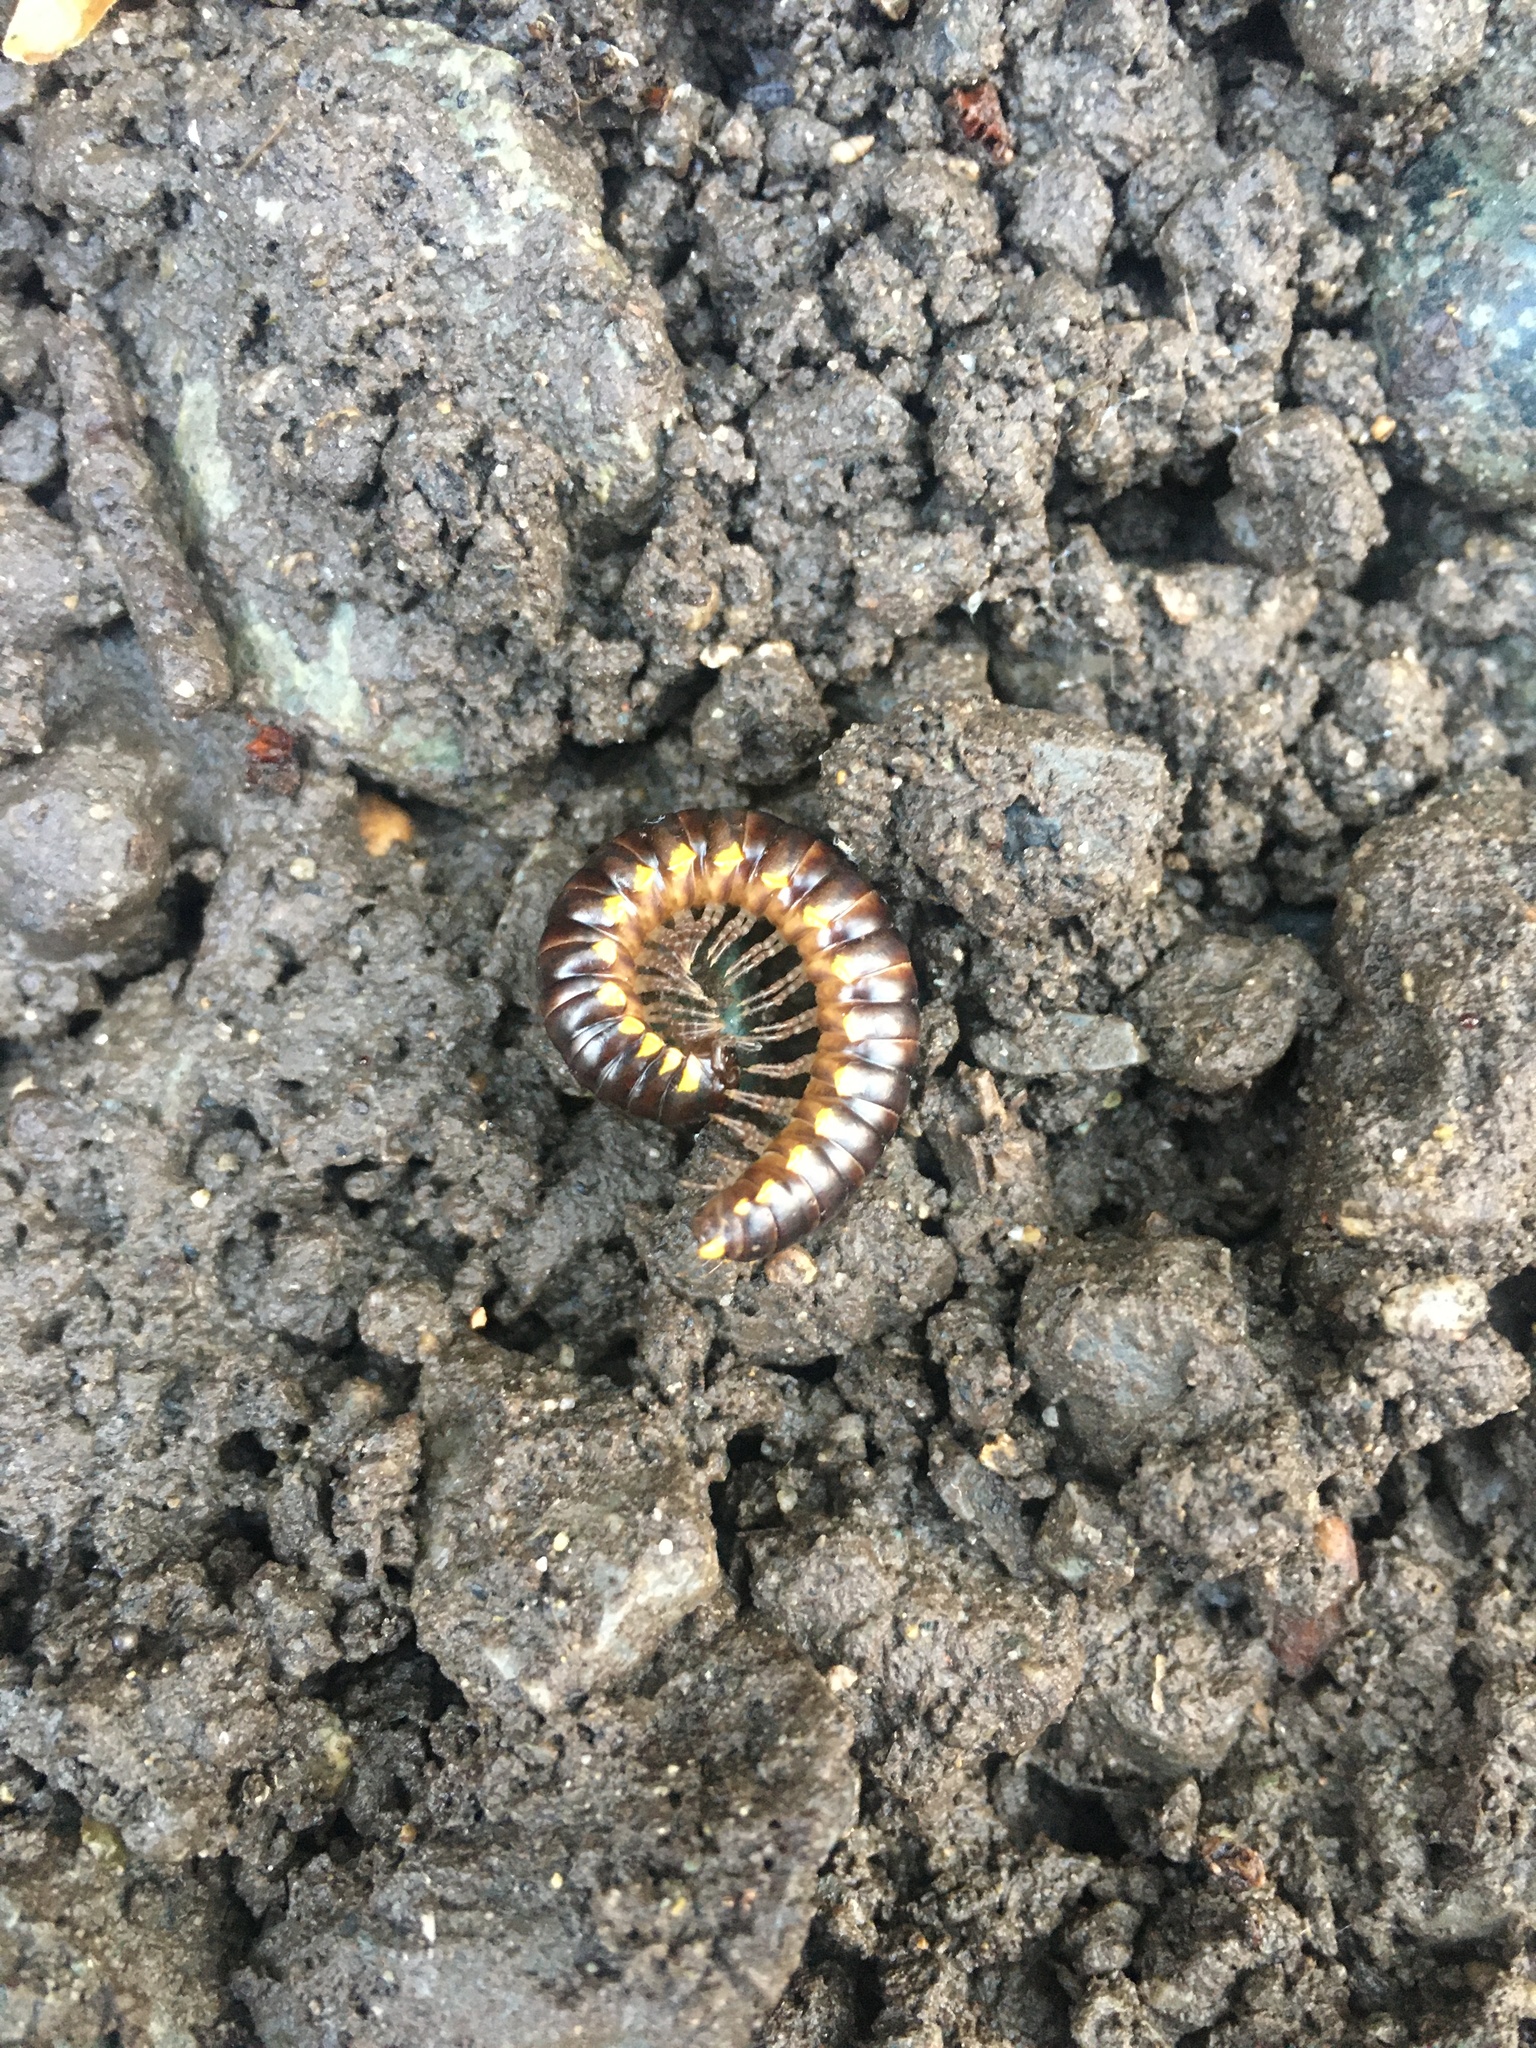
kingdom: Animalia
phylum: Arthropoda
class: Diplopoda
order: Polydesmida
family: Xystodesmidae
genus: Harpaphe
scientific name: Harpaphe haydeniana
